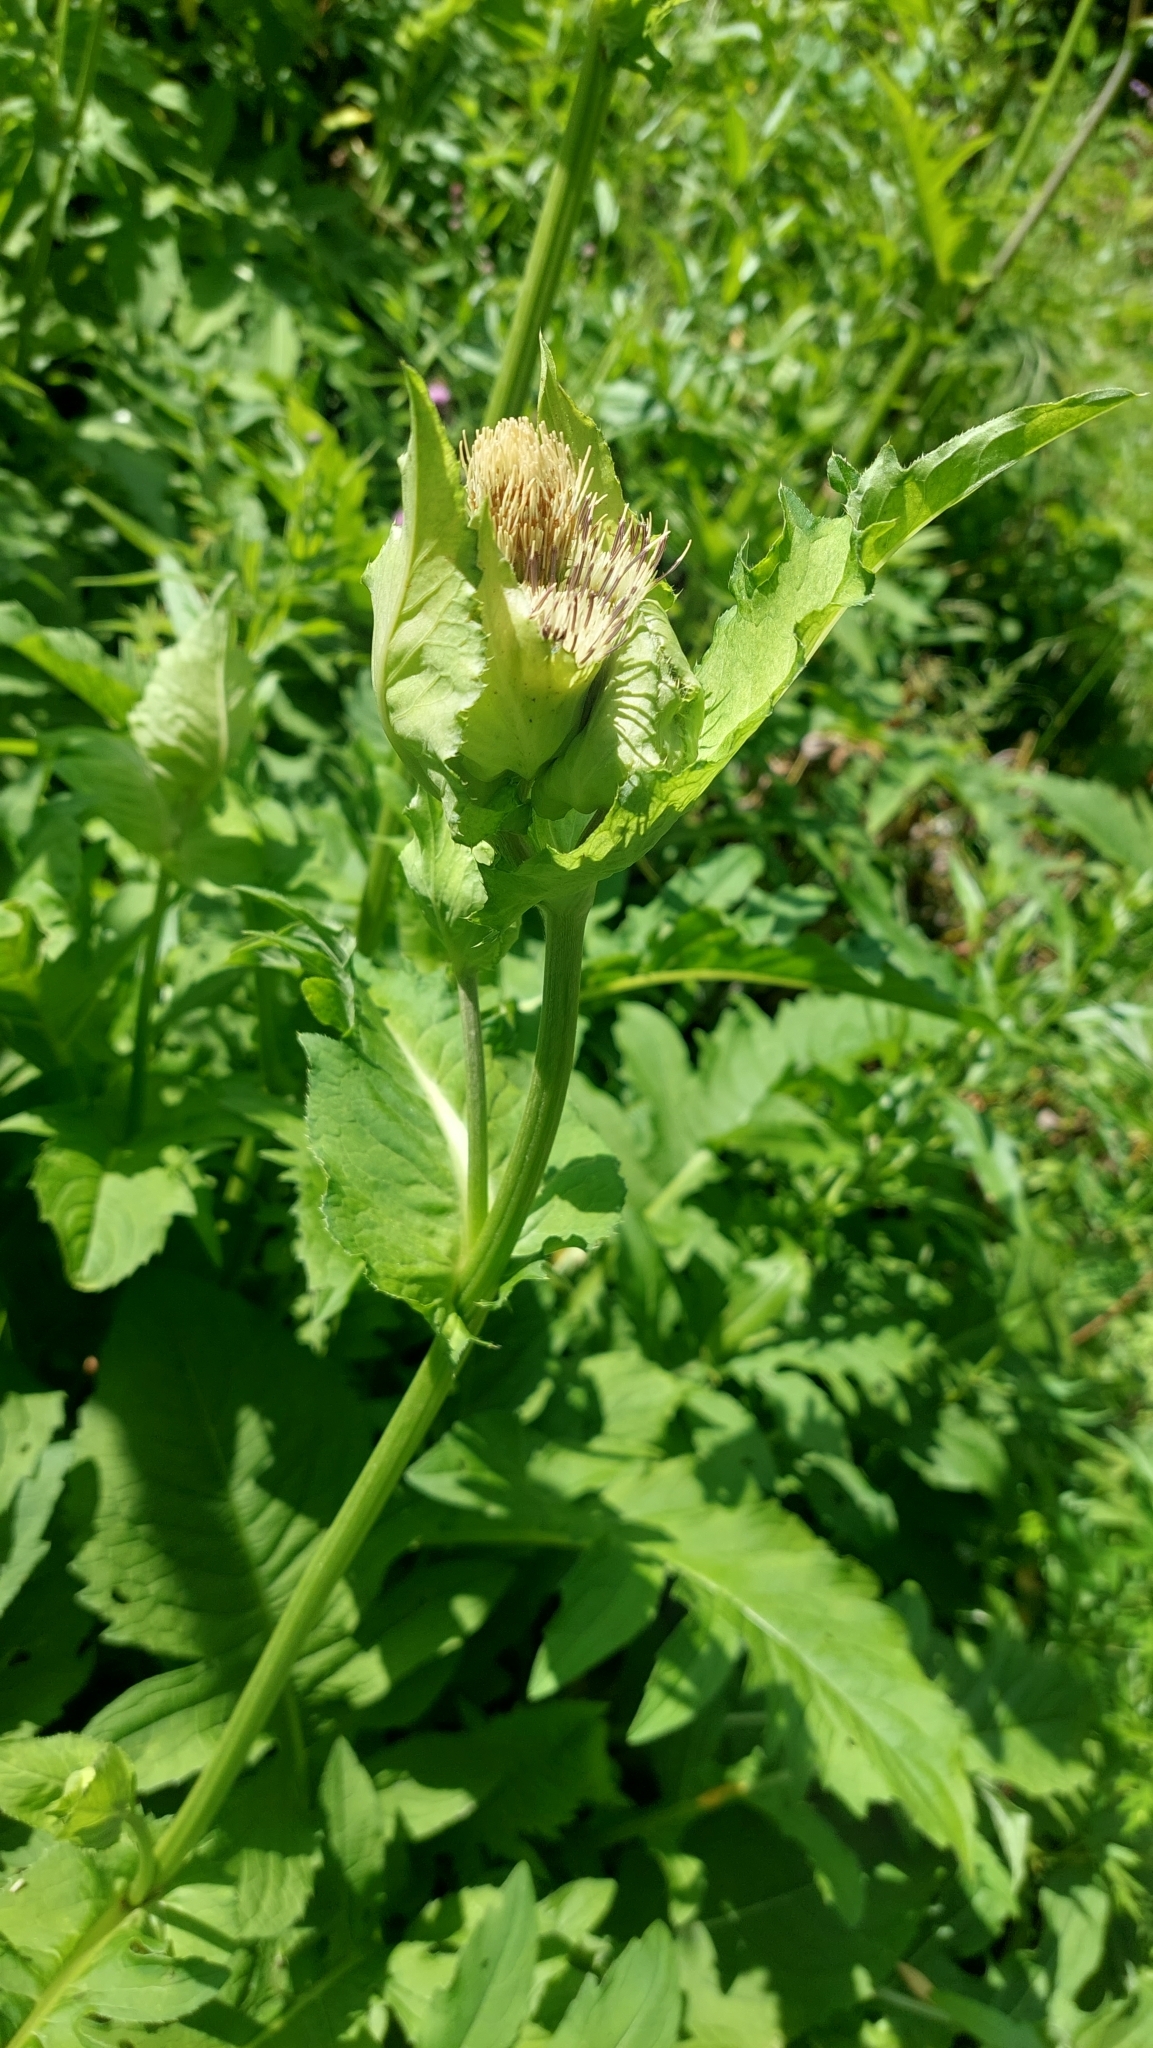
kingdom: Plantae
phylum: Tracheophyta
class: Magnoliopsida
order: Asterales
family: Asteraceae
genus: Cirsium
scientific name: Cirsium oleraceum
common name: Cabbage thistle
